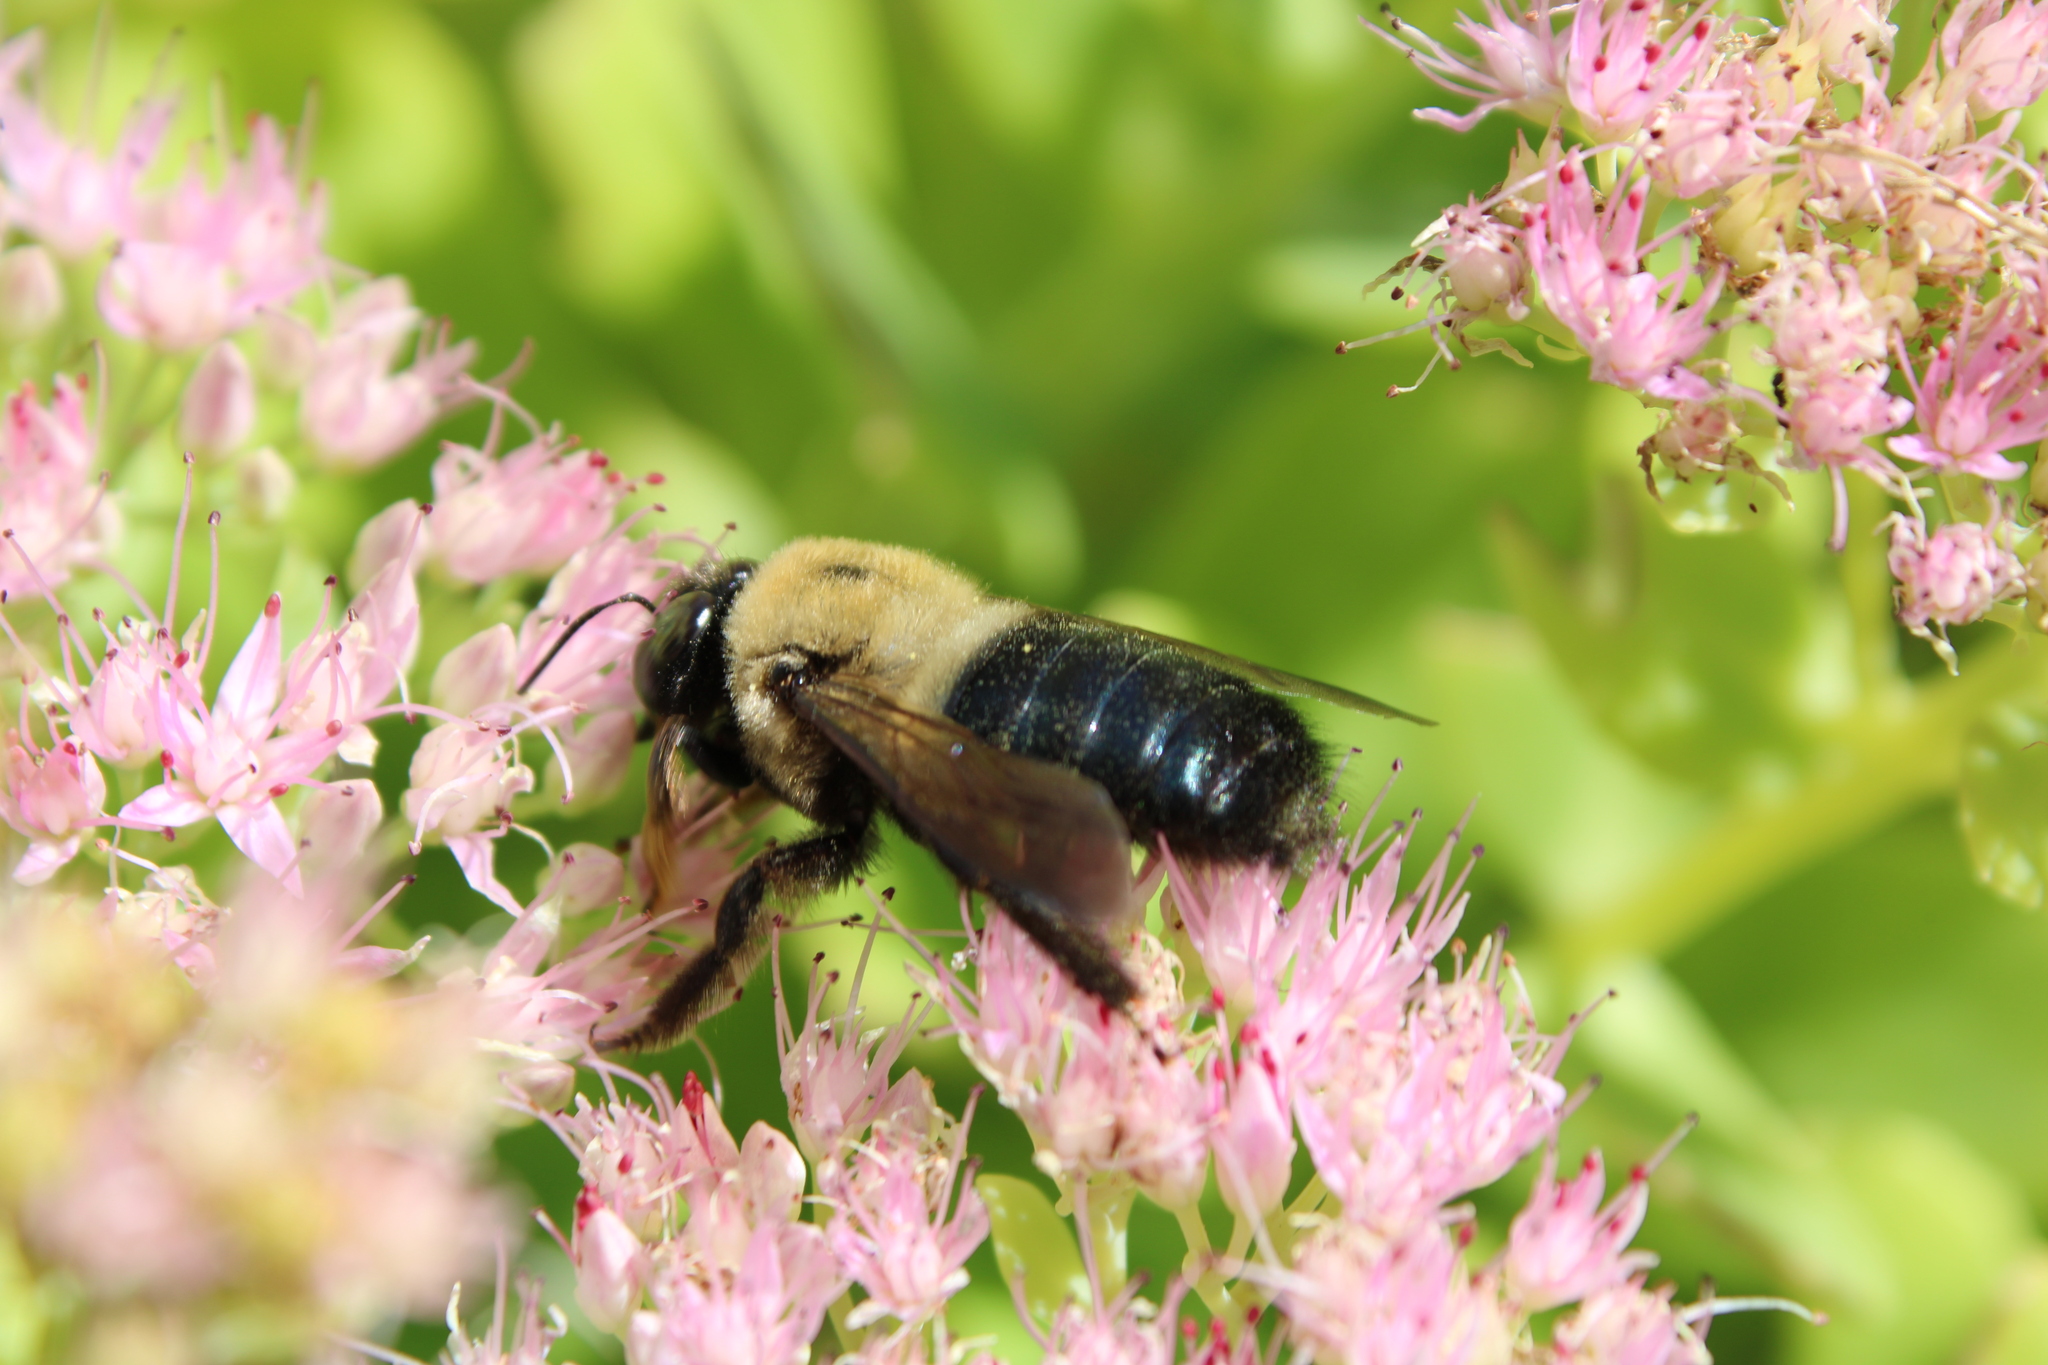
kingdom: Animalia
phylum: Arthropoda
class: Insecta
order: Hymenoptera
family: Apidae
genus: Xylocopa
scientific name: Xylocopa virginica
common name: Carpenter bee
